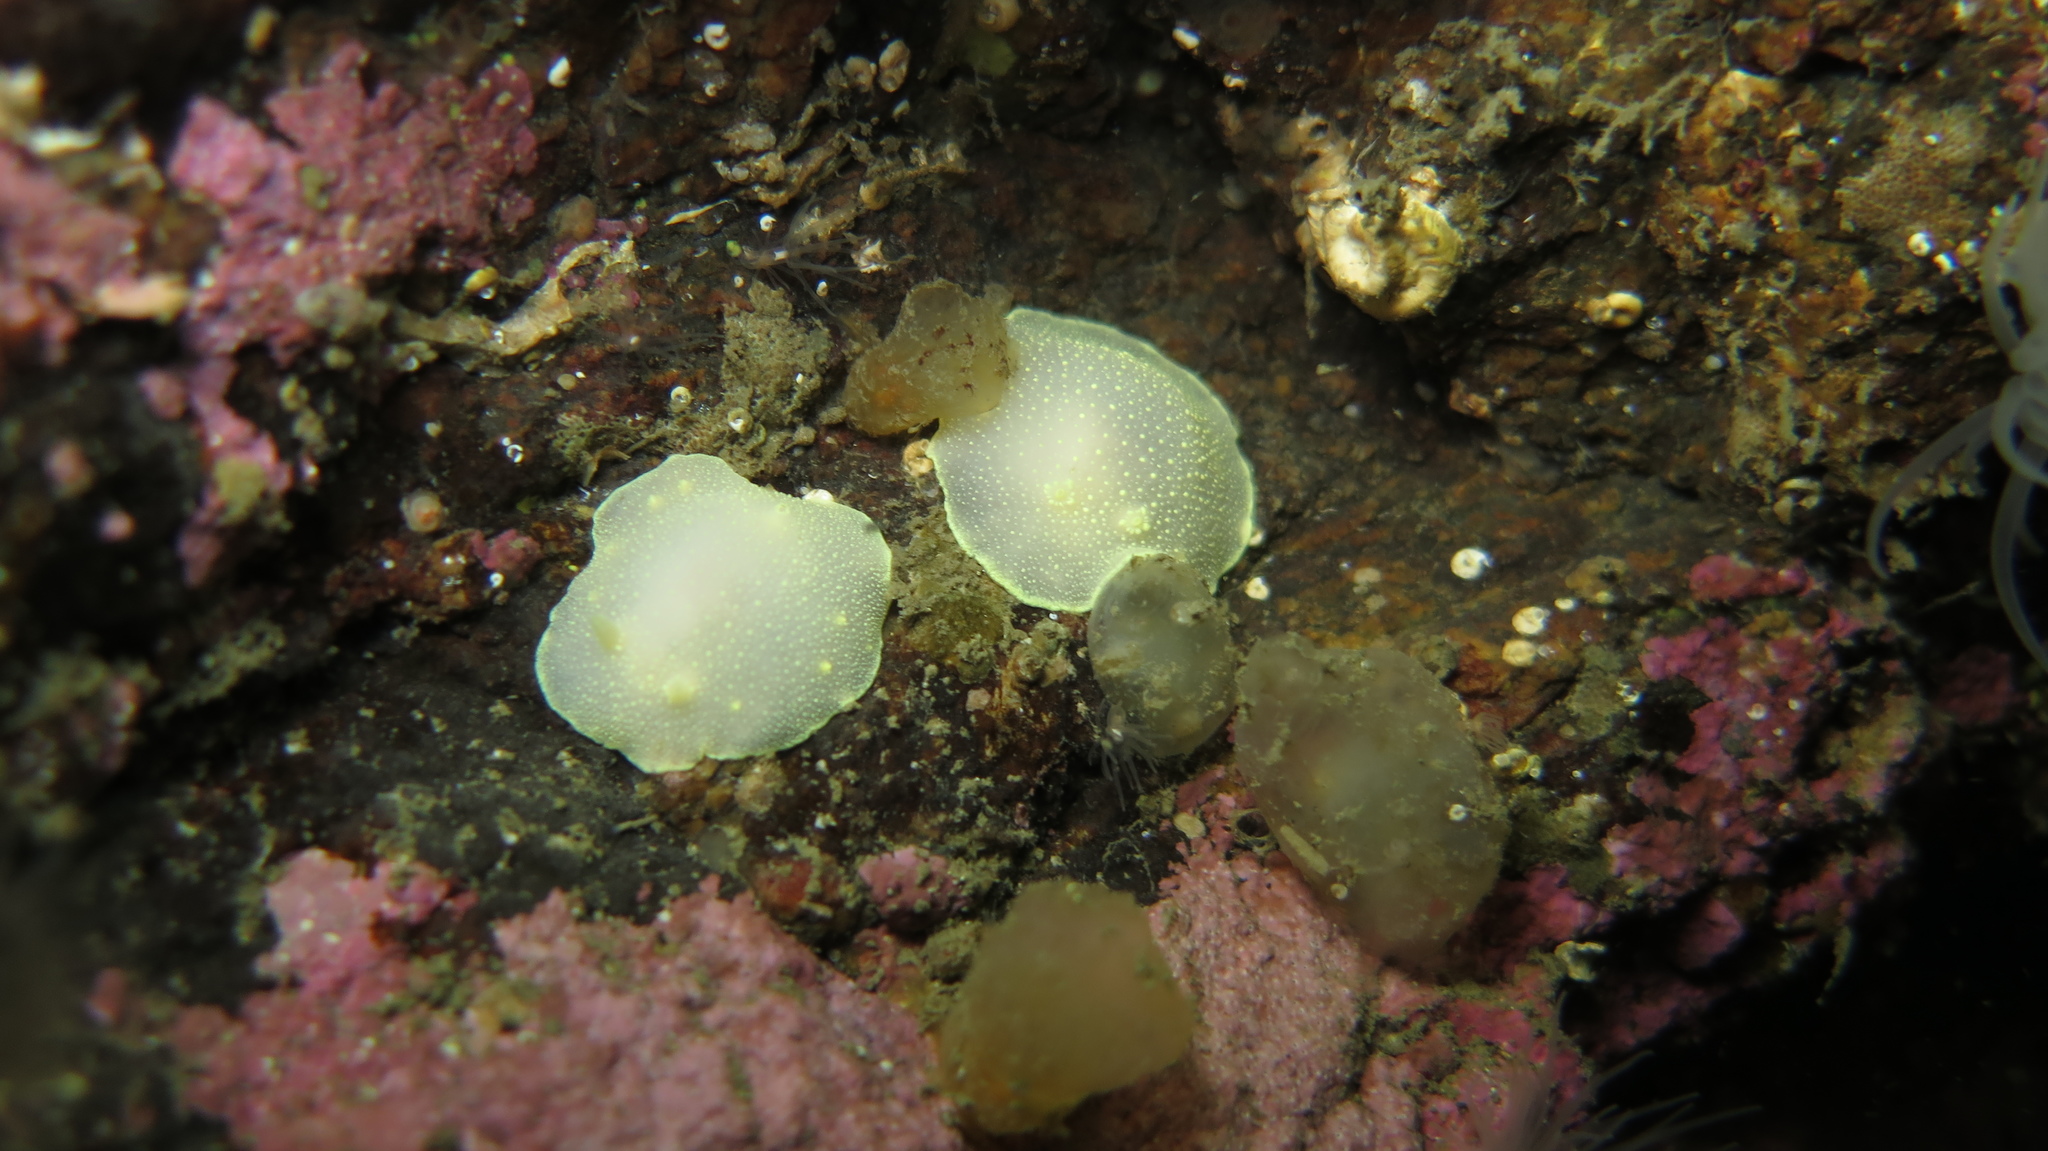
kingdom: Animalia
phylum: Mollusca
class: Gastropoda
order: Nudibranchia
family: Cadlinidae
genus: Cadlina
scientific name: Cadlina laevis
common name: White atlantic cadlina
